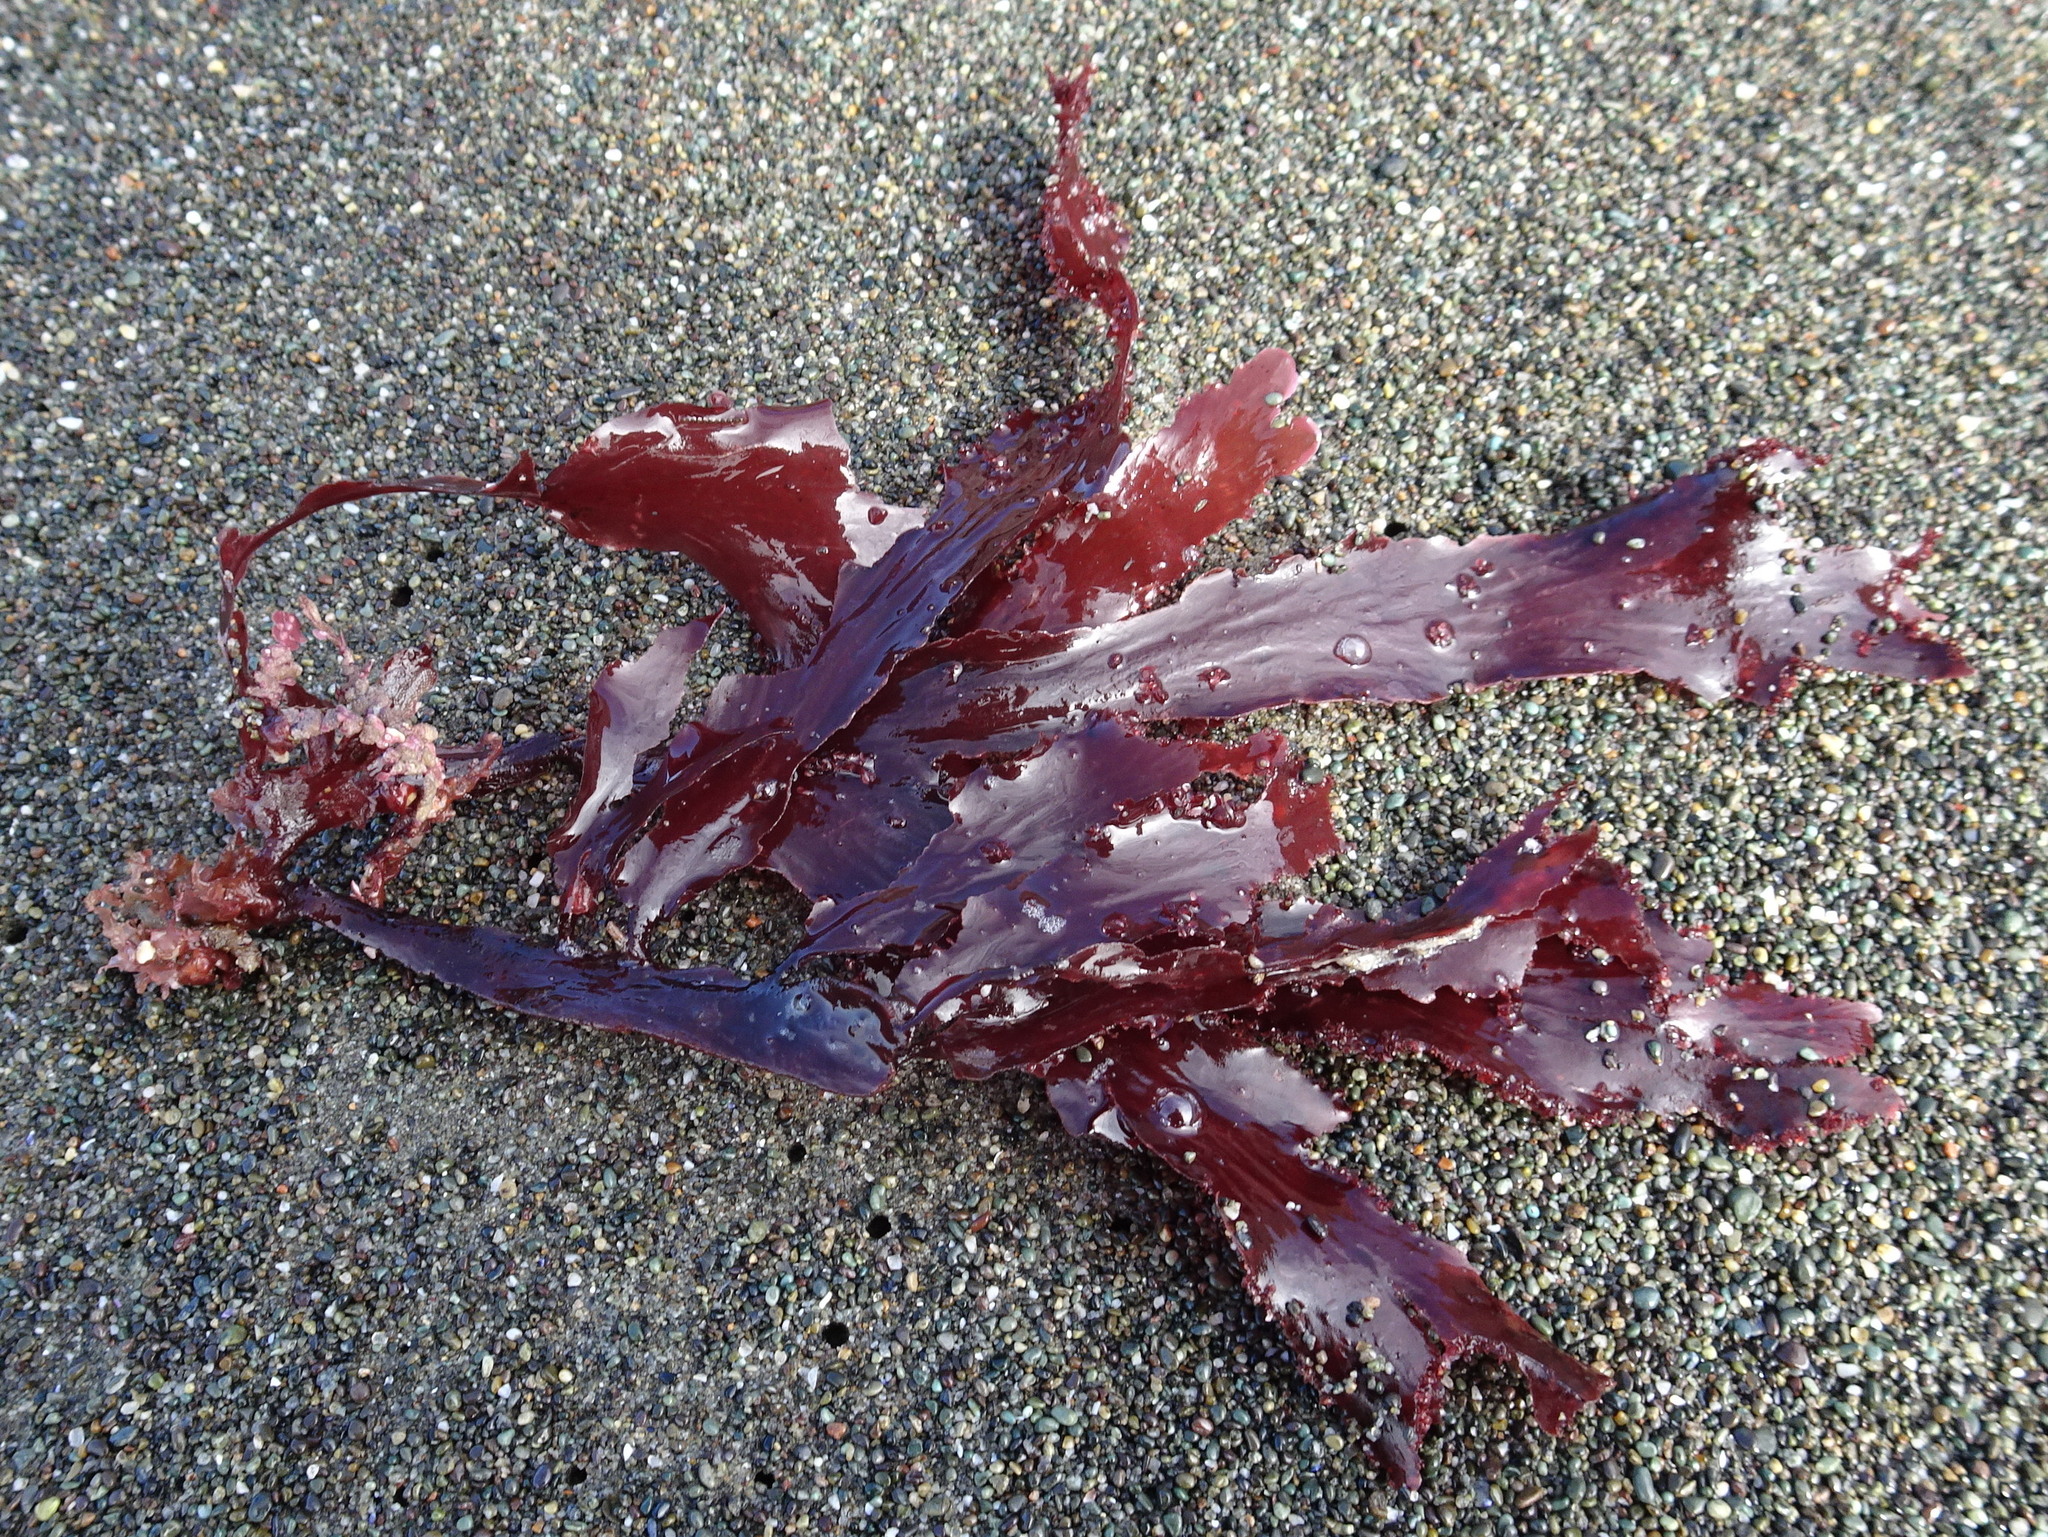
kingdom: Plantae
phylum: Rhodophyta
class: Florideophyceae
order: Ceramiales
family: Delesseriaceae
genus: Cryptopleura
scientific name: Cryptopleura ruprechtiana
